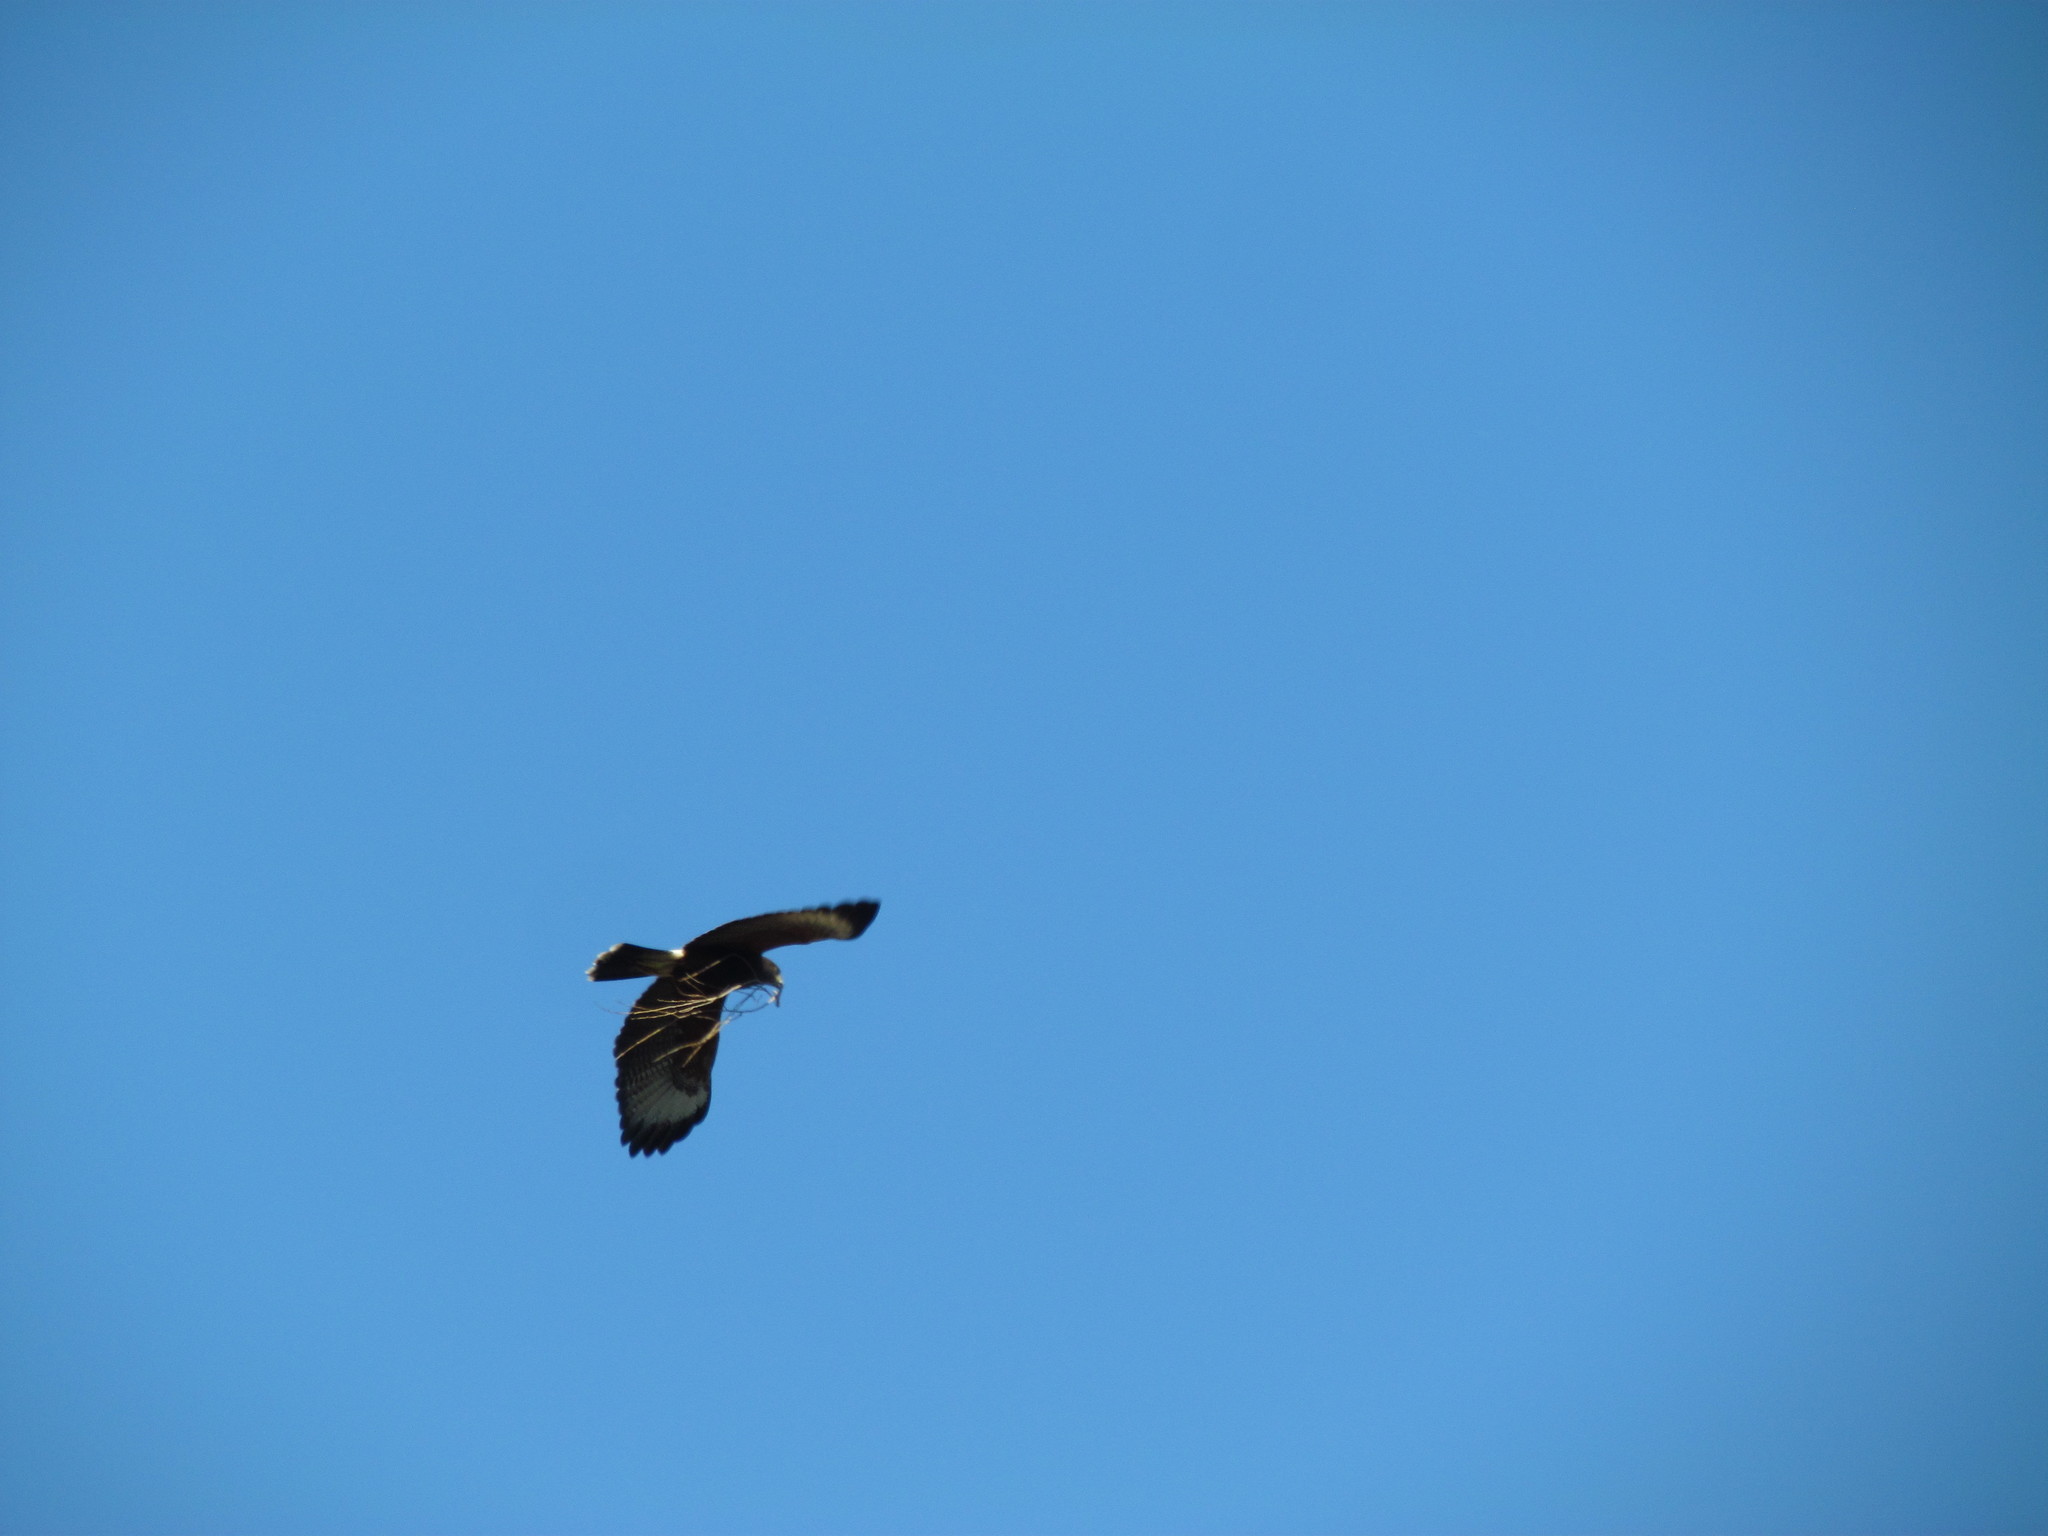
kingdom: Animalia
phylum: Chordata
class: Aves
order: Accipitriformes
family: Accipitridae
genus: Parabuteo
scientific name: Parabuteo unicinctus
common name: Harris's hawk
